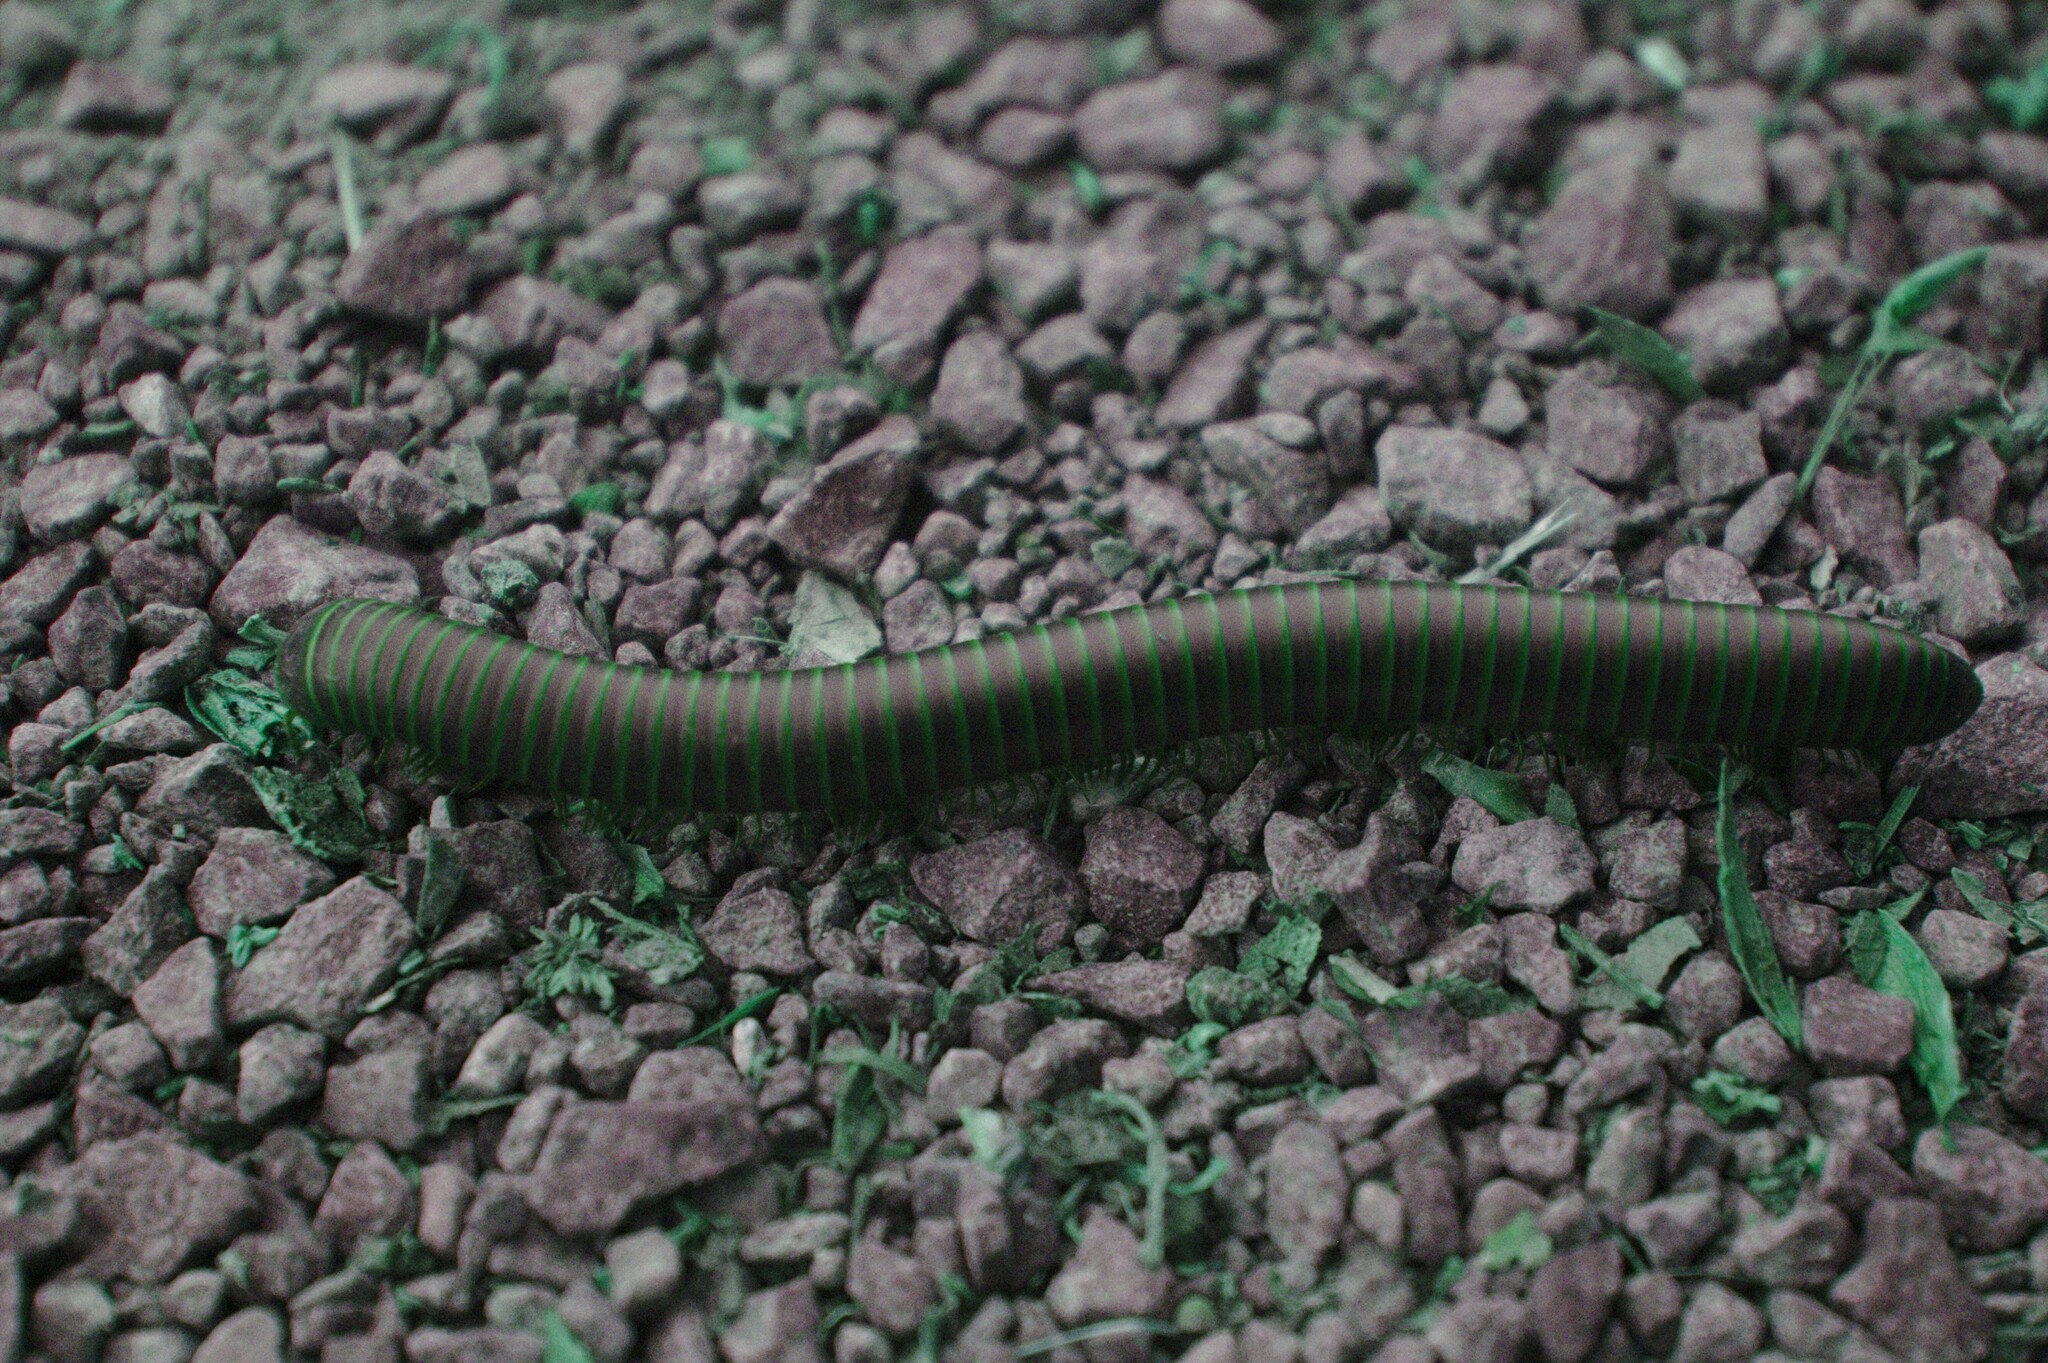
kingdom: Animalia
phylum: Arthropoda
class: Diplopoda
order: Spirobolida
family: Spirobolidae
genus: Narceus
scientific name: Narceus americanus
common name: American giant millipede
